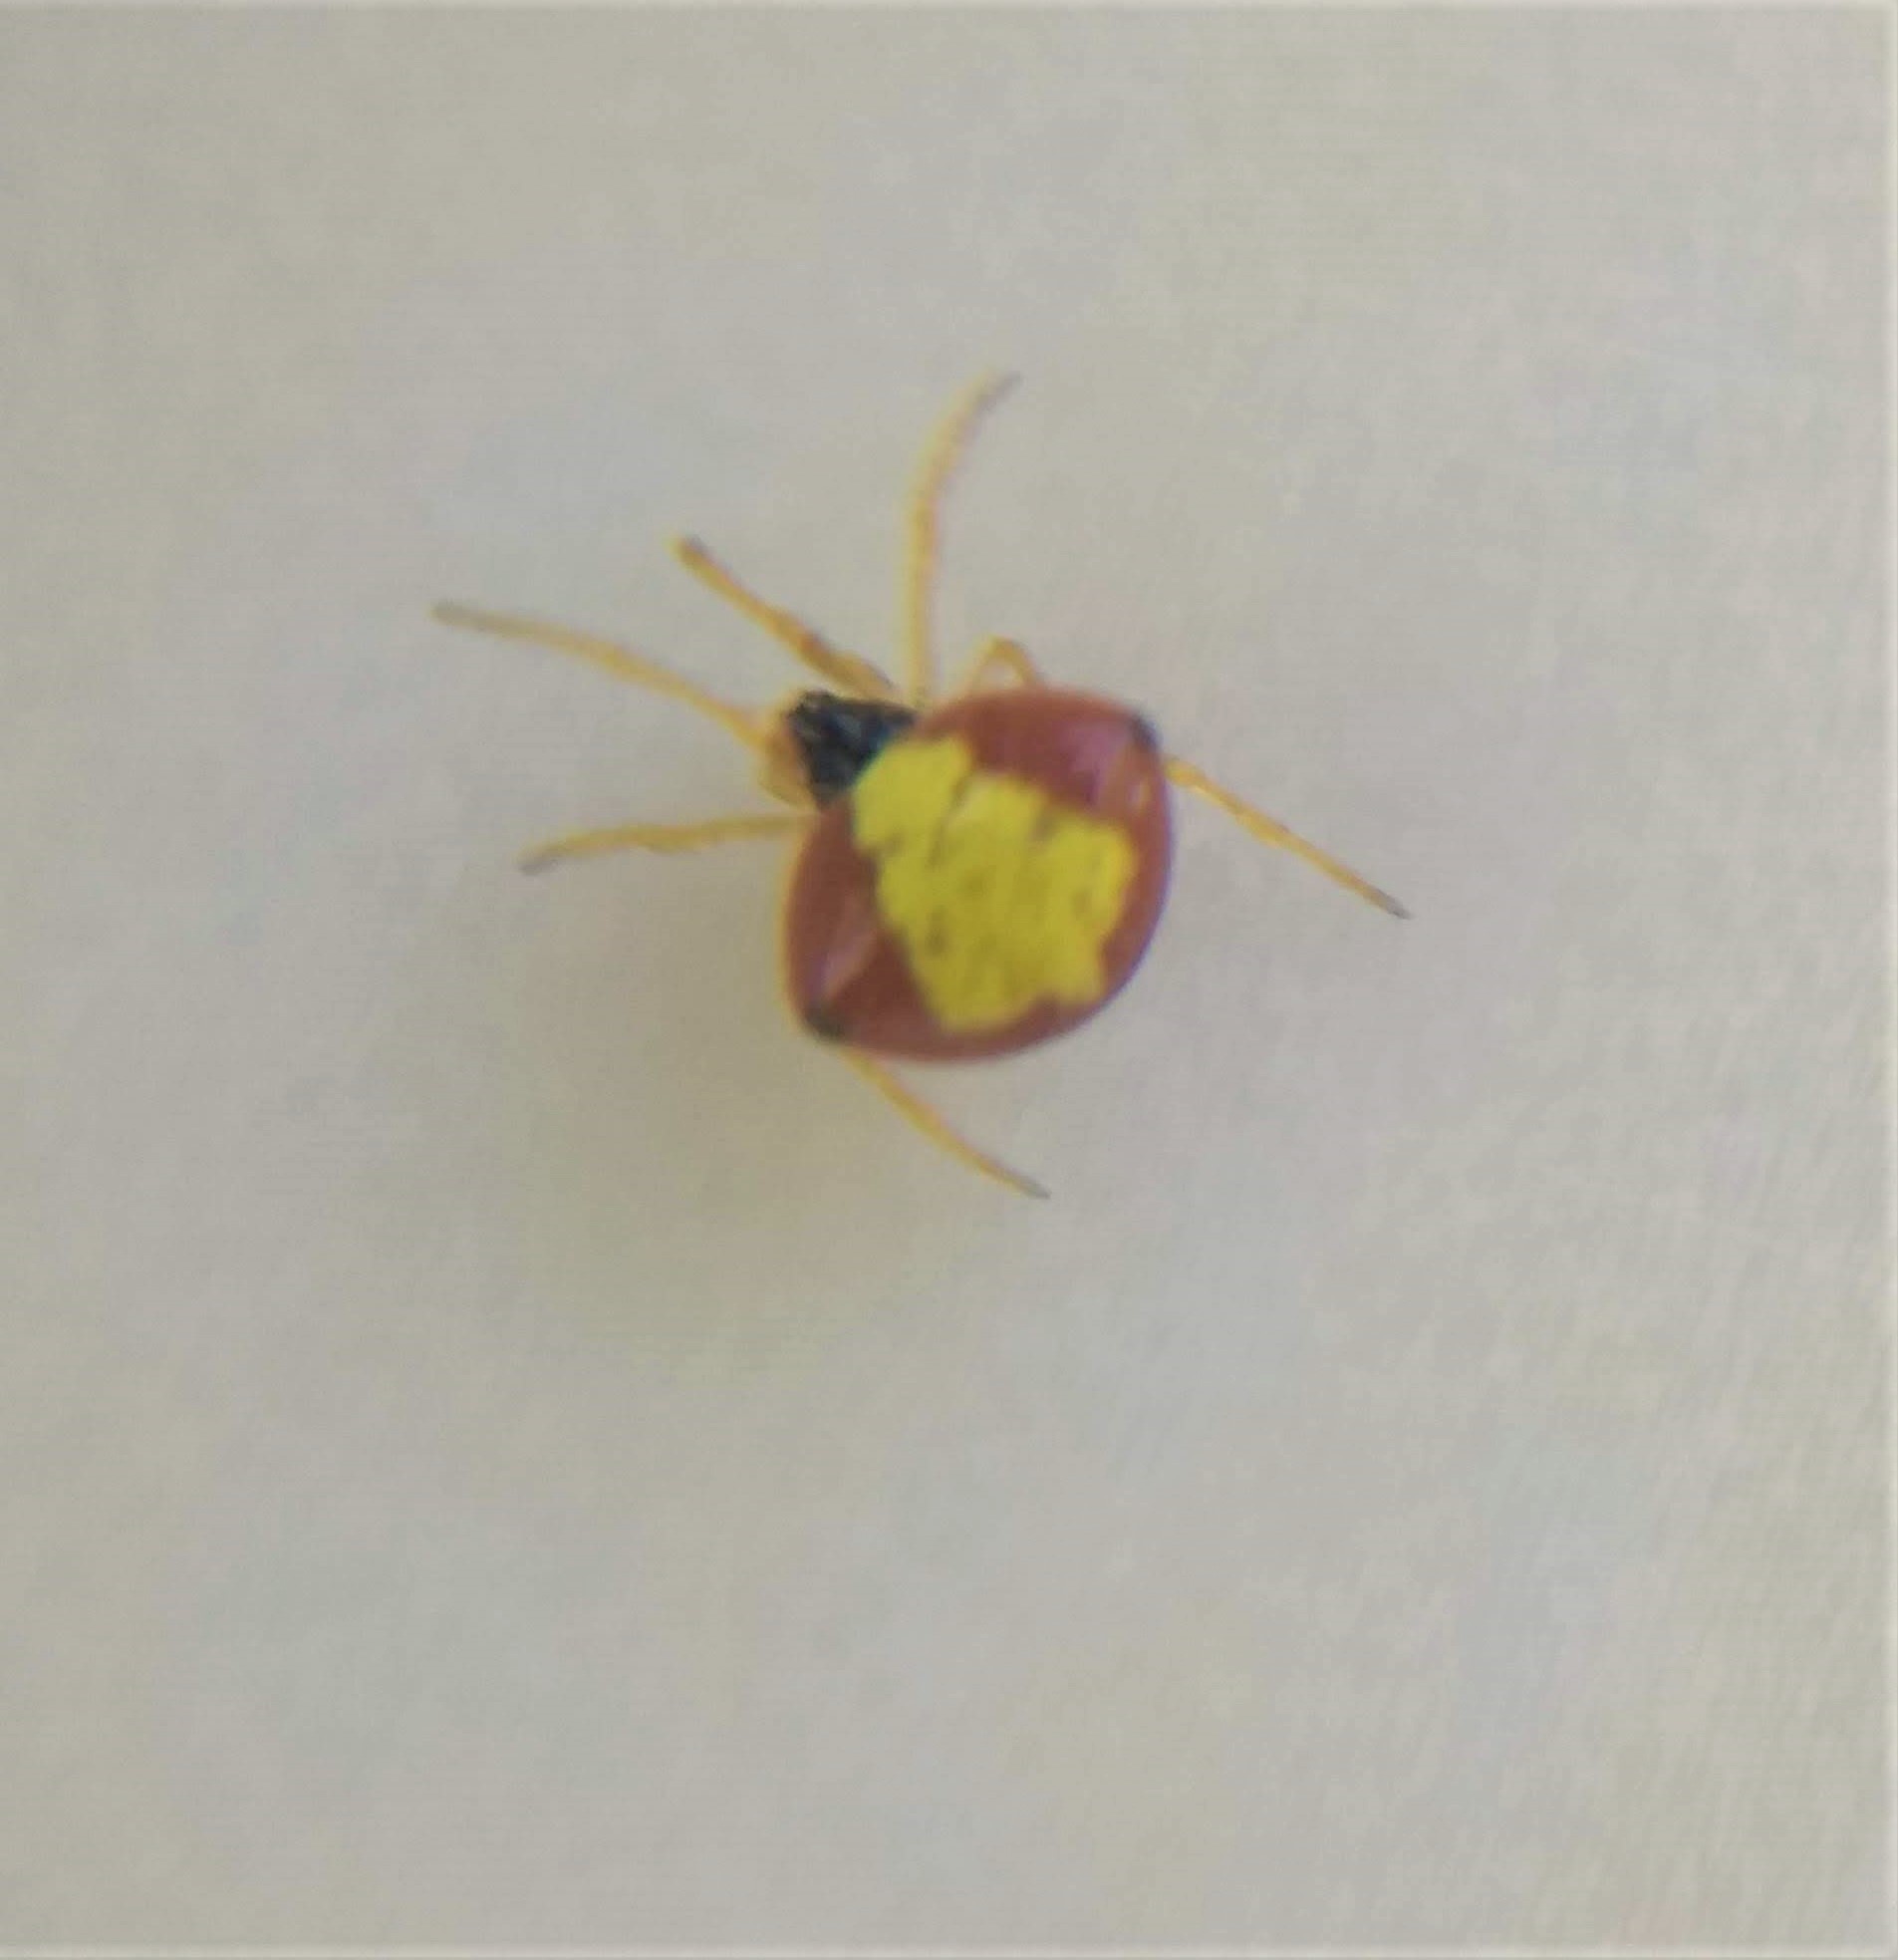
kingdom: Animalia
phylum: Arthropoda
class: Arachnida
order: Araneae
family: Theridiidae
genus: Theridula
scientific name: Theridula emertoni
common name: Emerton's bitubercled cobweaver
